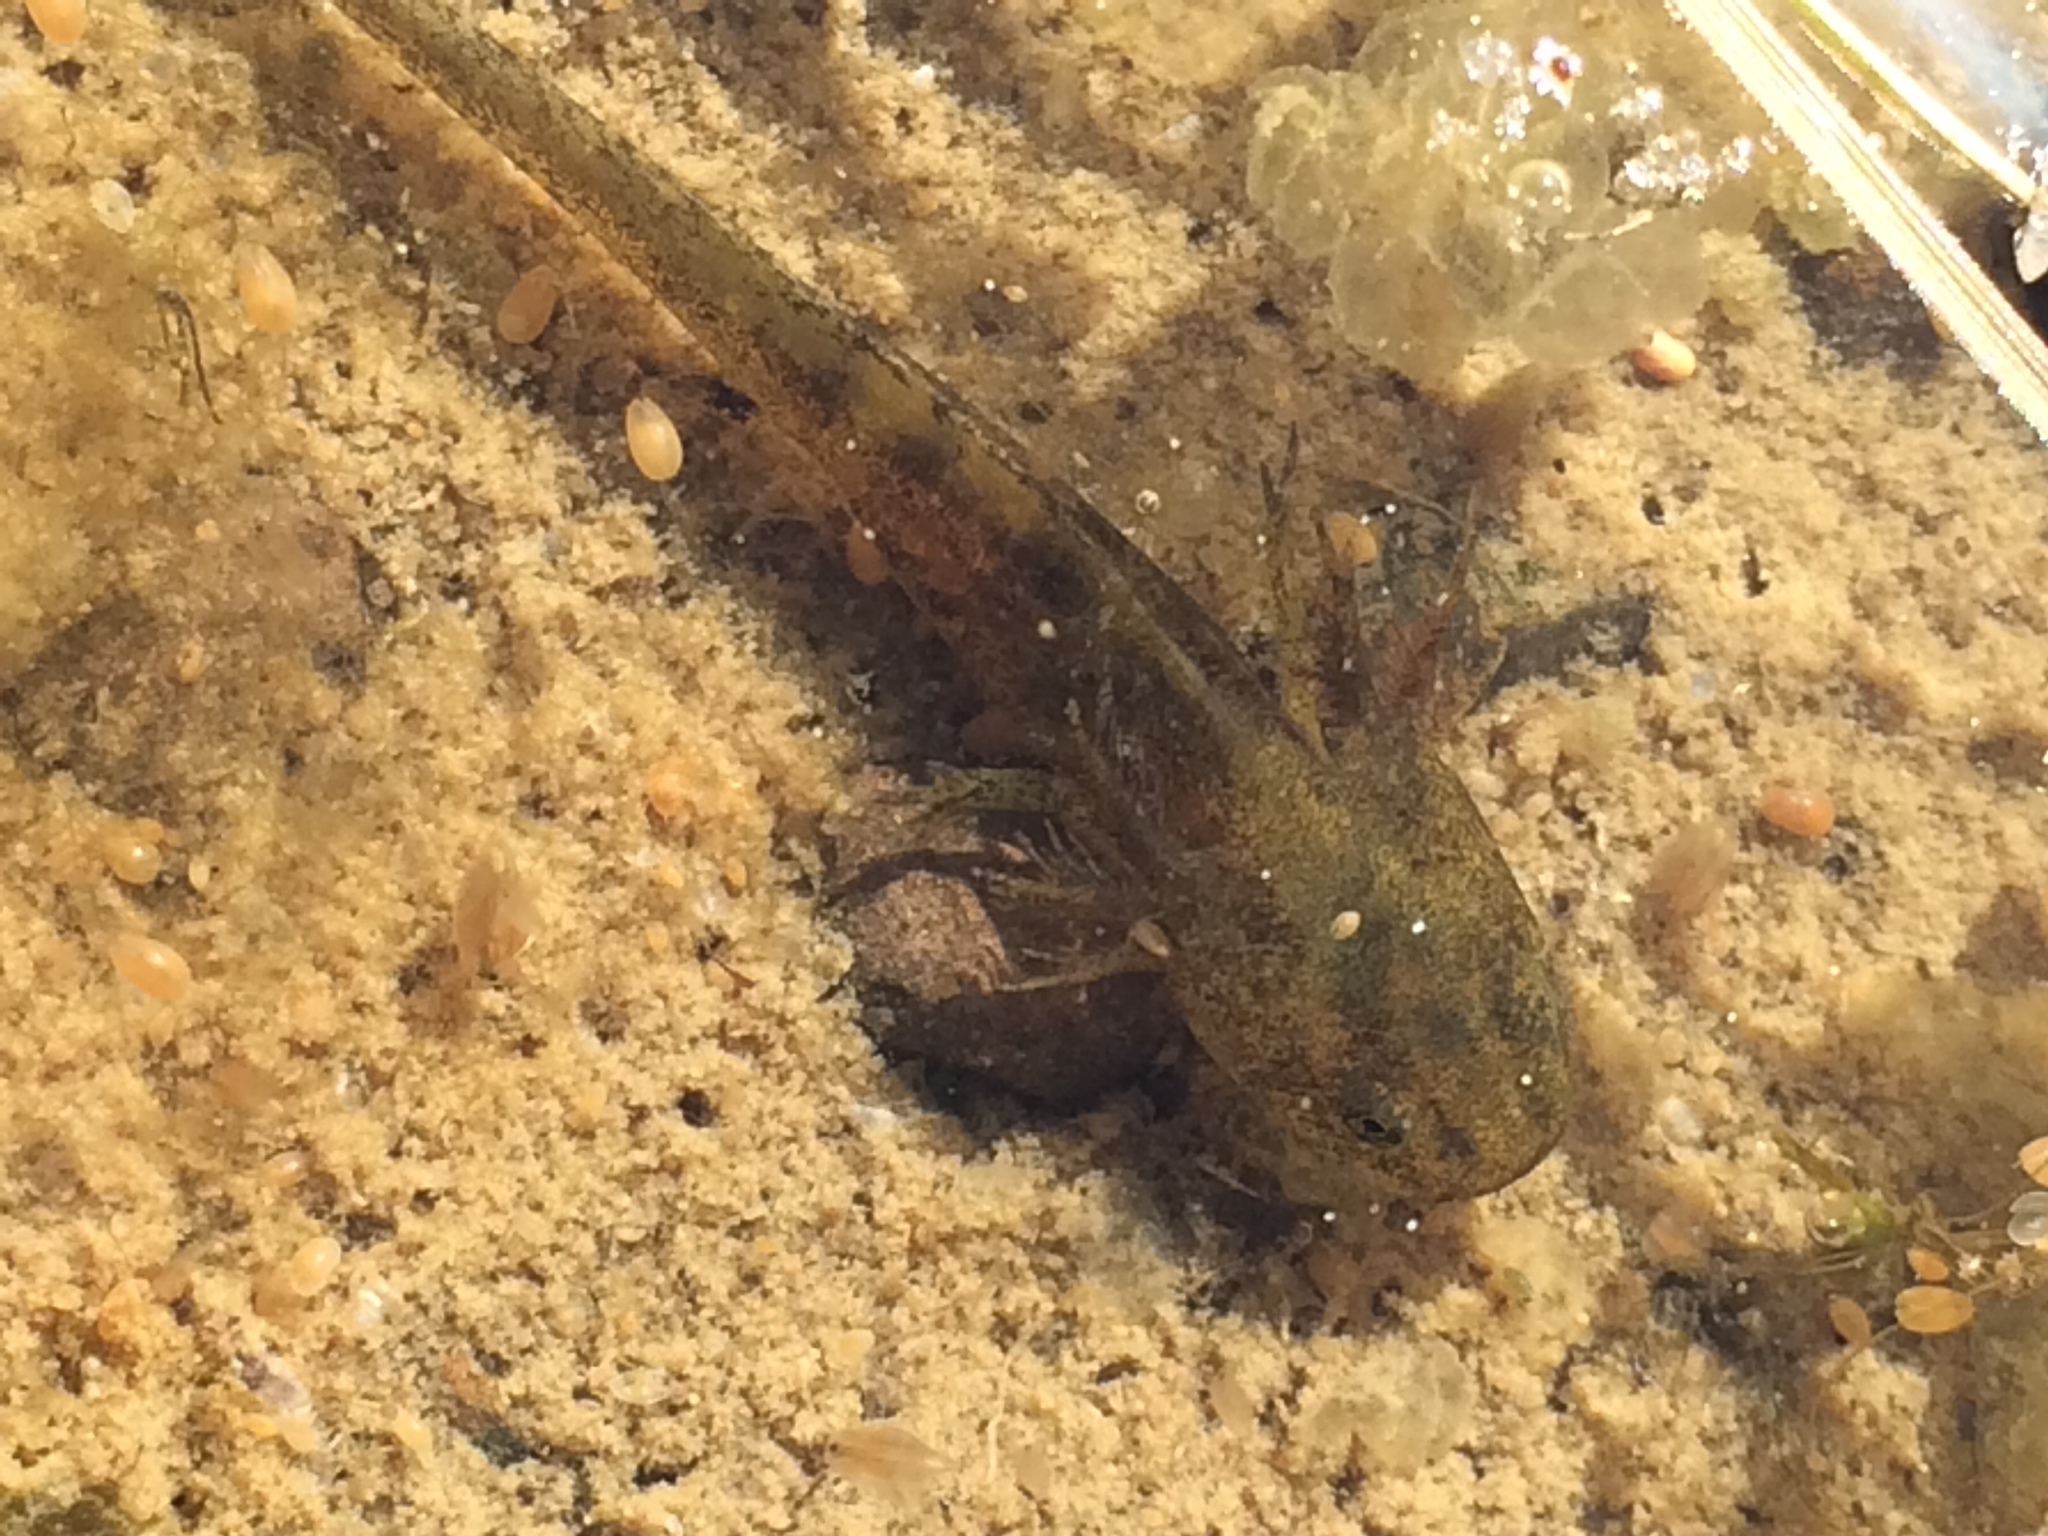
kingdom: Animalia
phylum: Chordata
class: Amphibia
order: Caudata
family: Ambystomatidae
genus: Ambystoma
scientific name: Ambystoma macrodactylum
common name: Long-toed salamander
